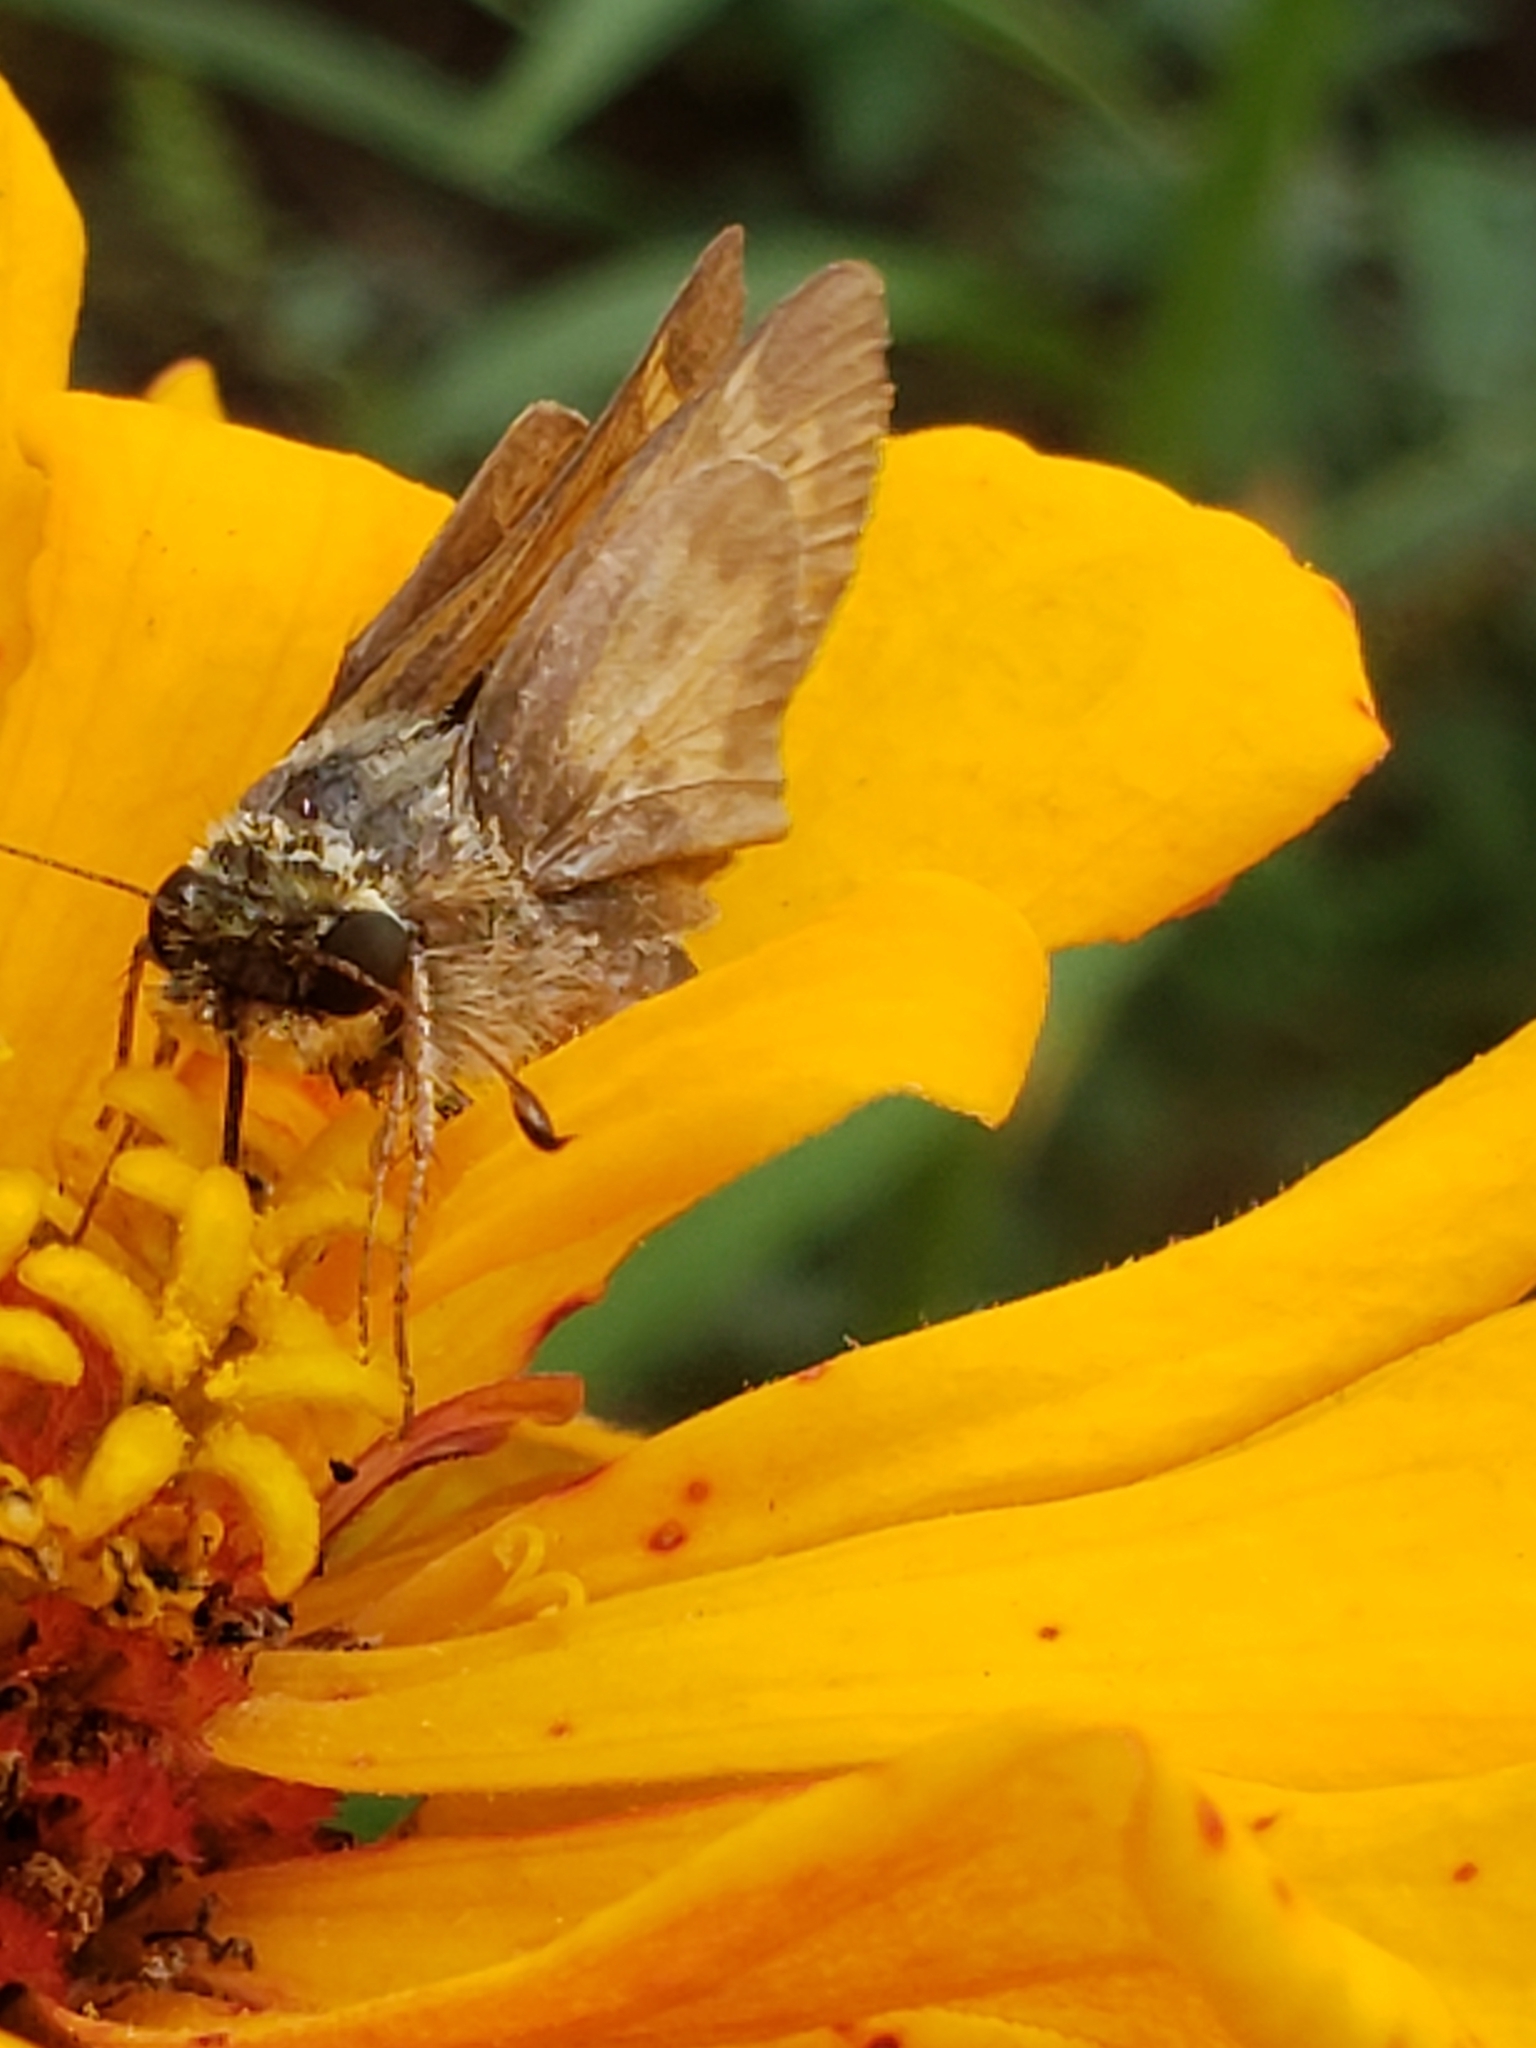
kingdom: Animalia
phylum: Arthropoda
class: Insecta
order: Lepidoptera
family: Hesperiidae
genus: Atalopedes
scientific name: Atalopedes
